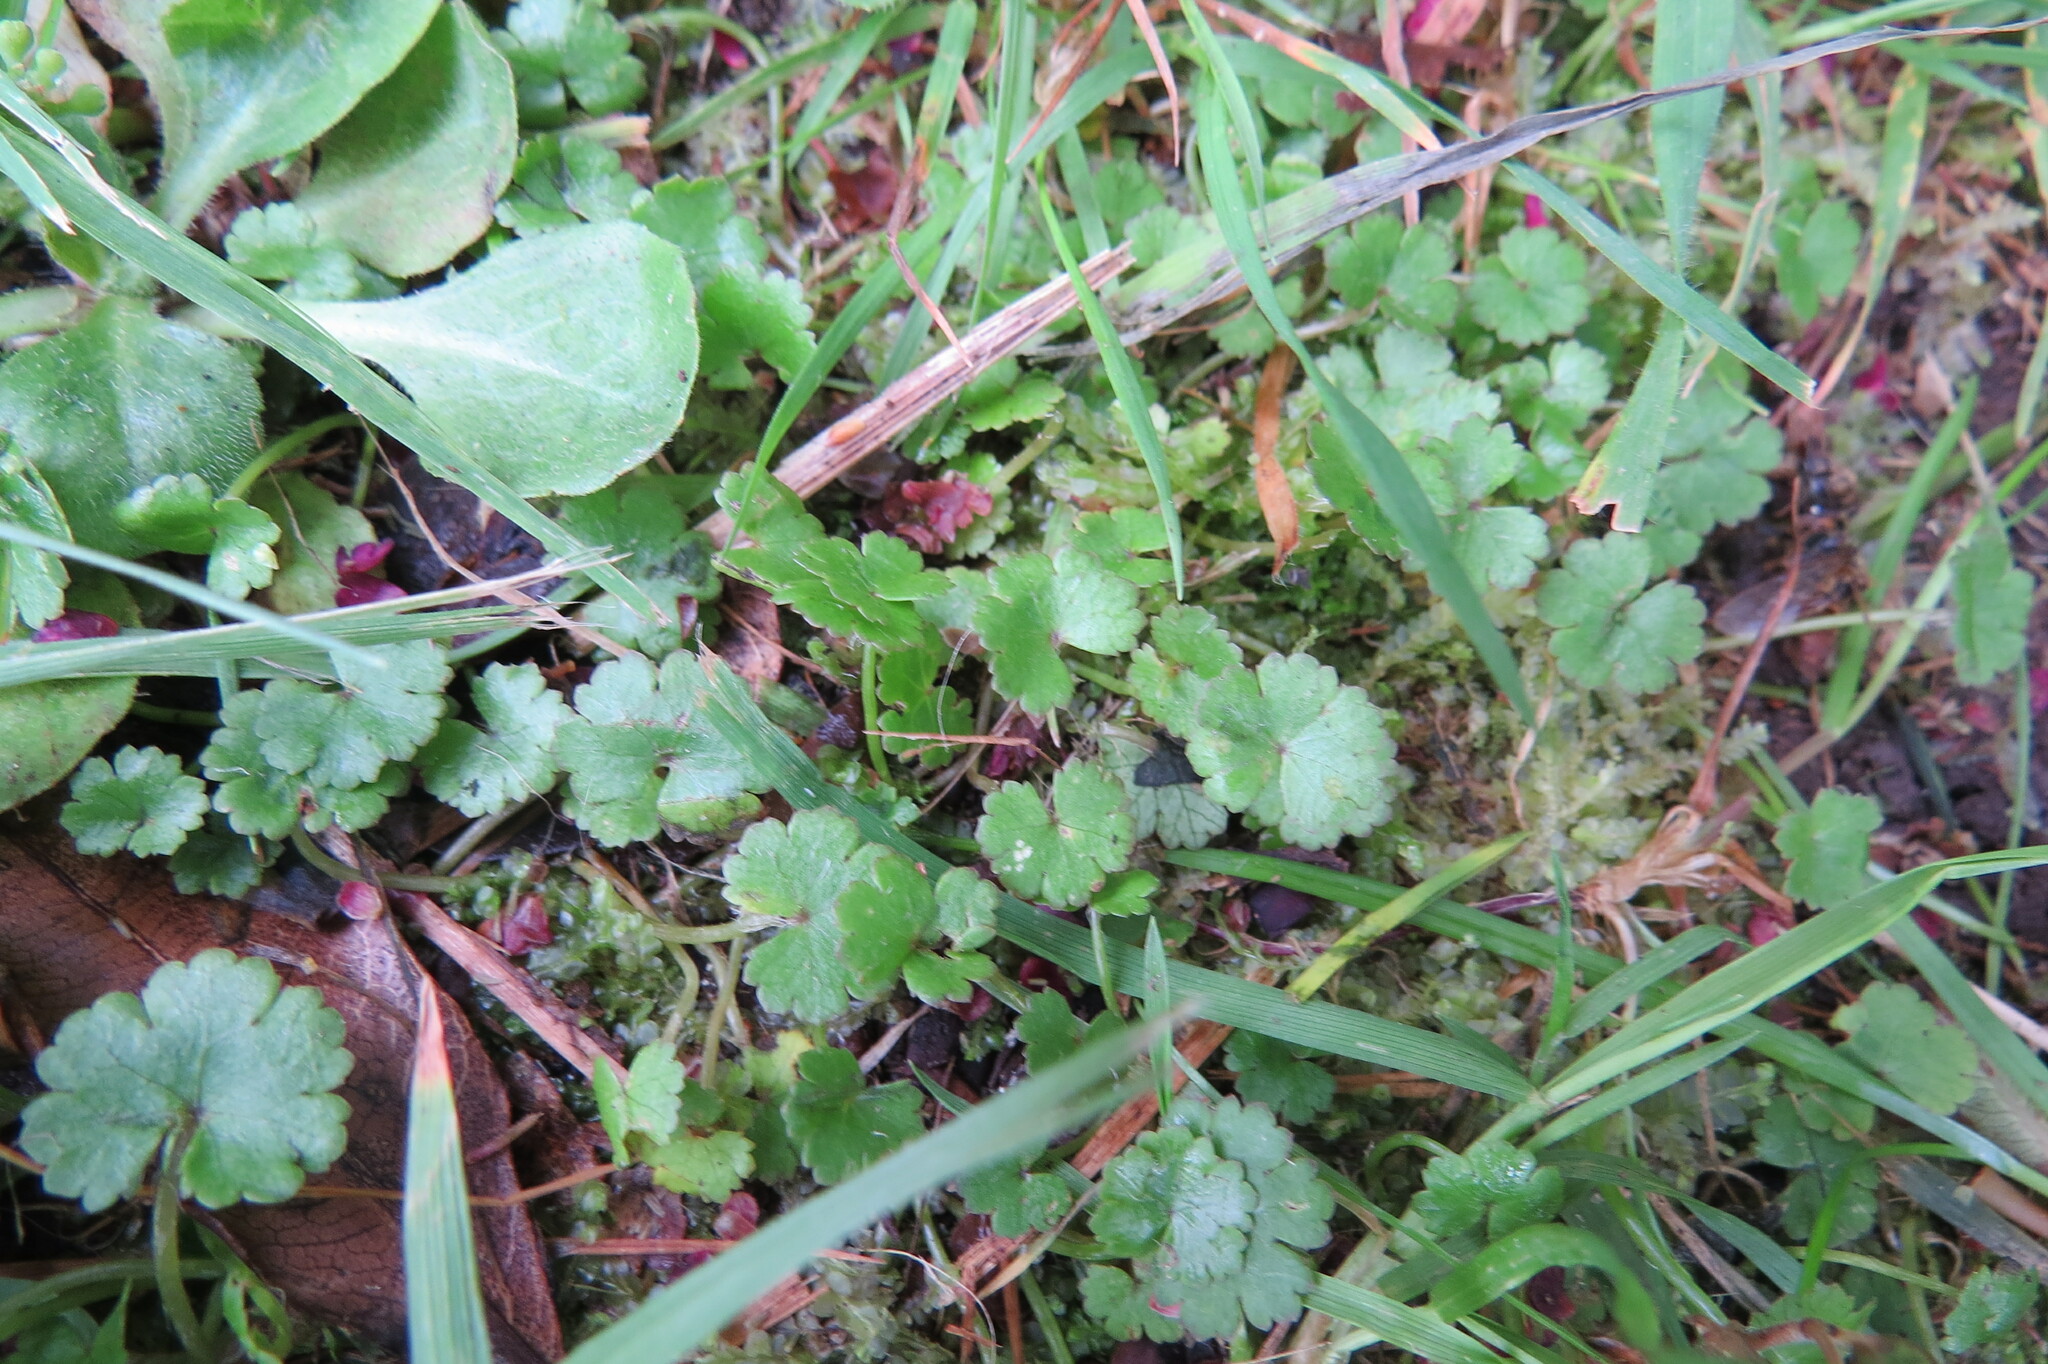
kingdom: Plantae
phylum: Tracheophyta
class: Magnoliopsida
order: Apiales
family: Araliaceae
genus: Hydrocotyle
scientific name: Hydrocotyle novae-zeelandiae
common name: New zealand pennywort
